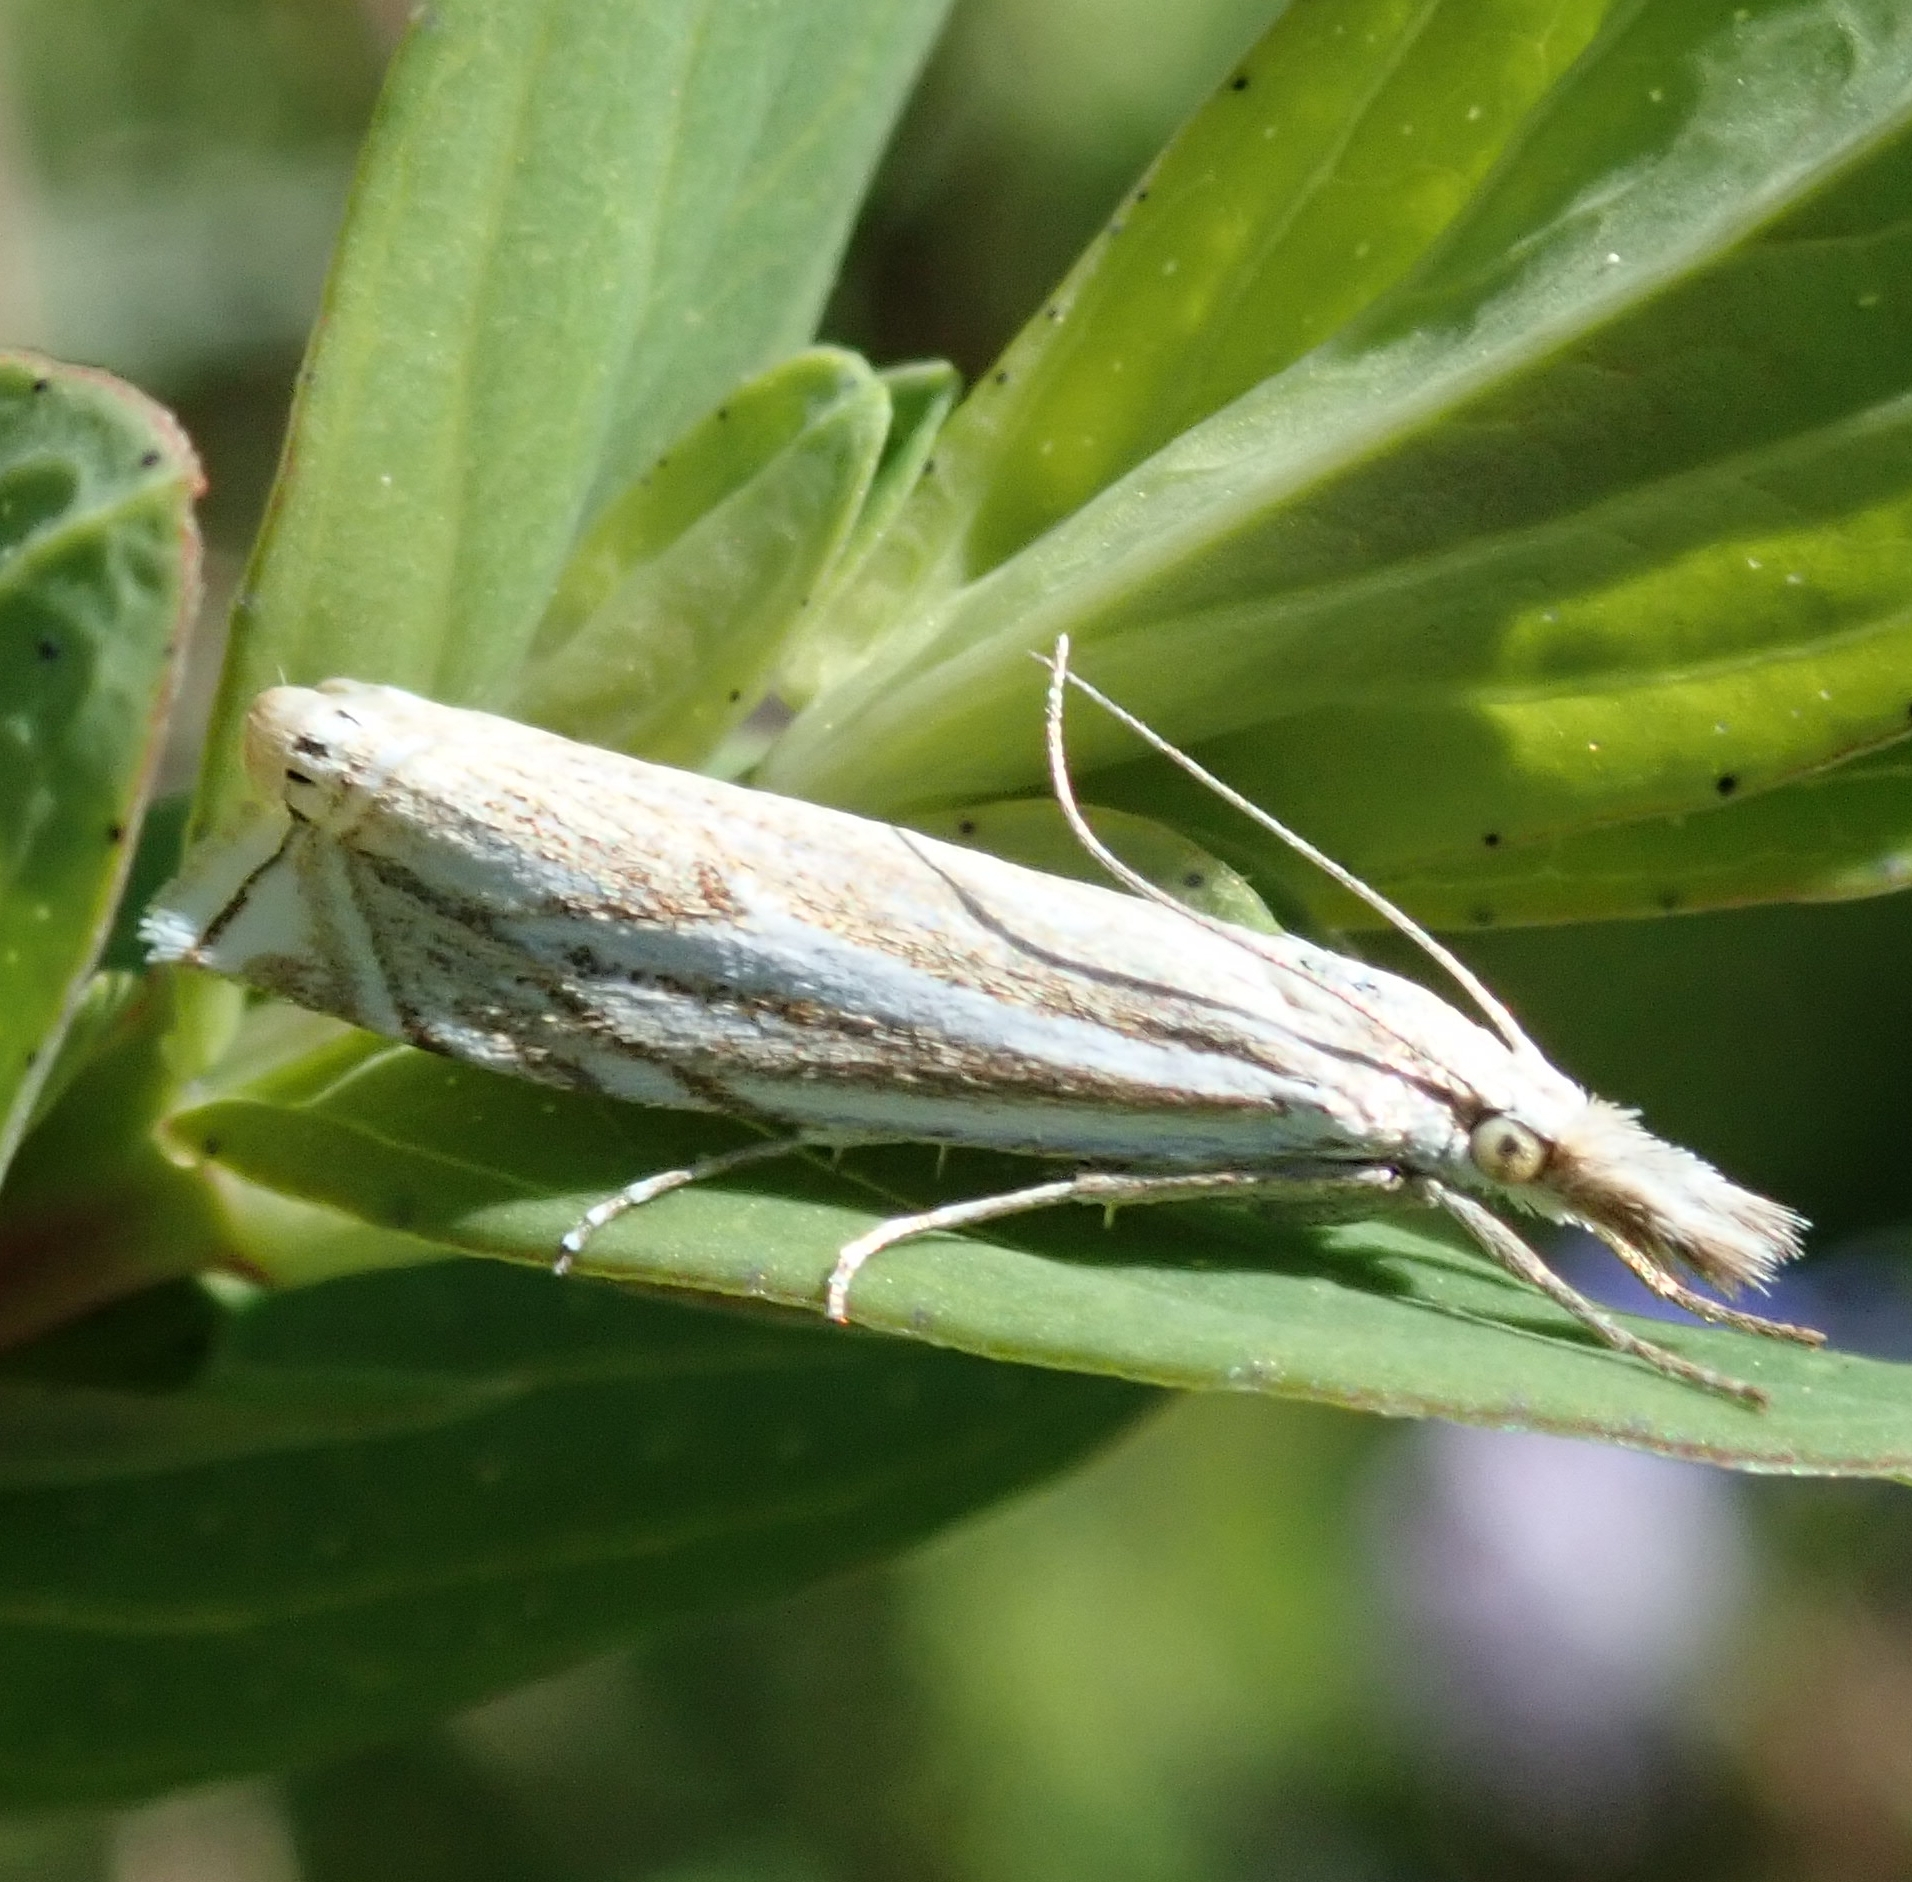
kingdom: Animalia
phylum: Arthropoda
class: Insecta
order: Lepidoptera
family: Crambidae
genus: Crambus
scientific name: Crambus nemorella
